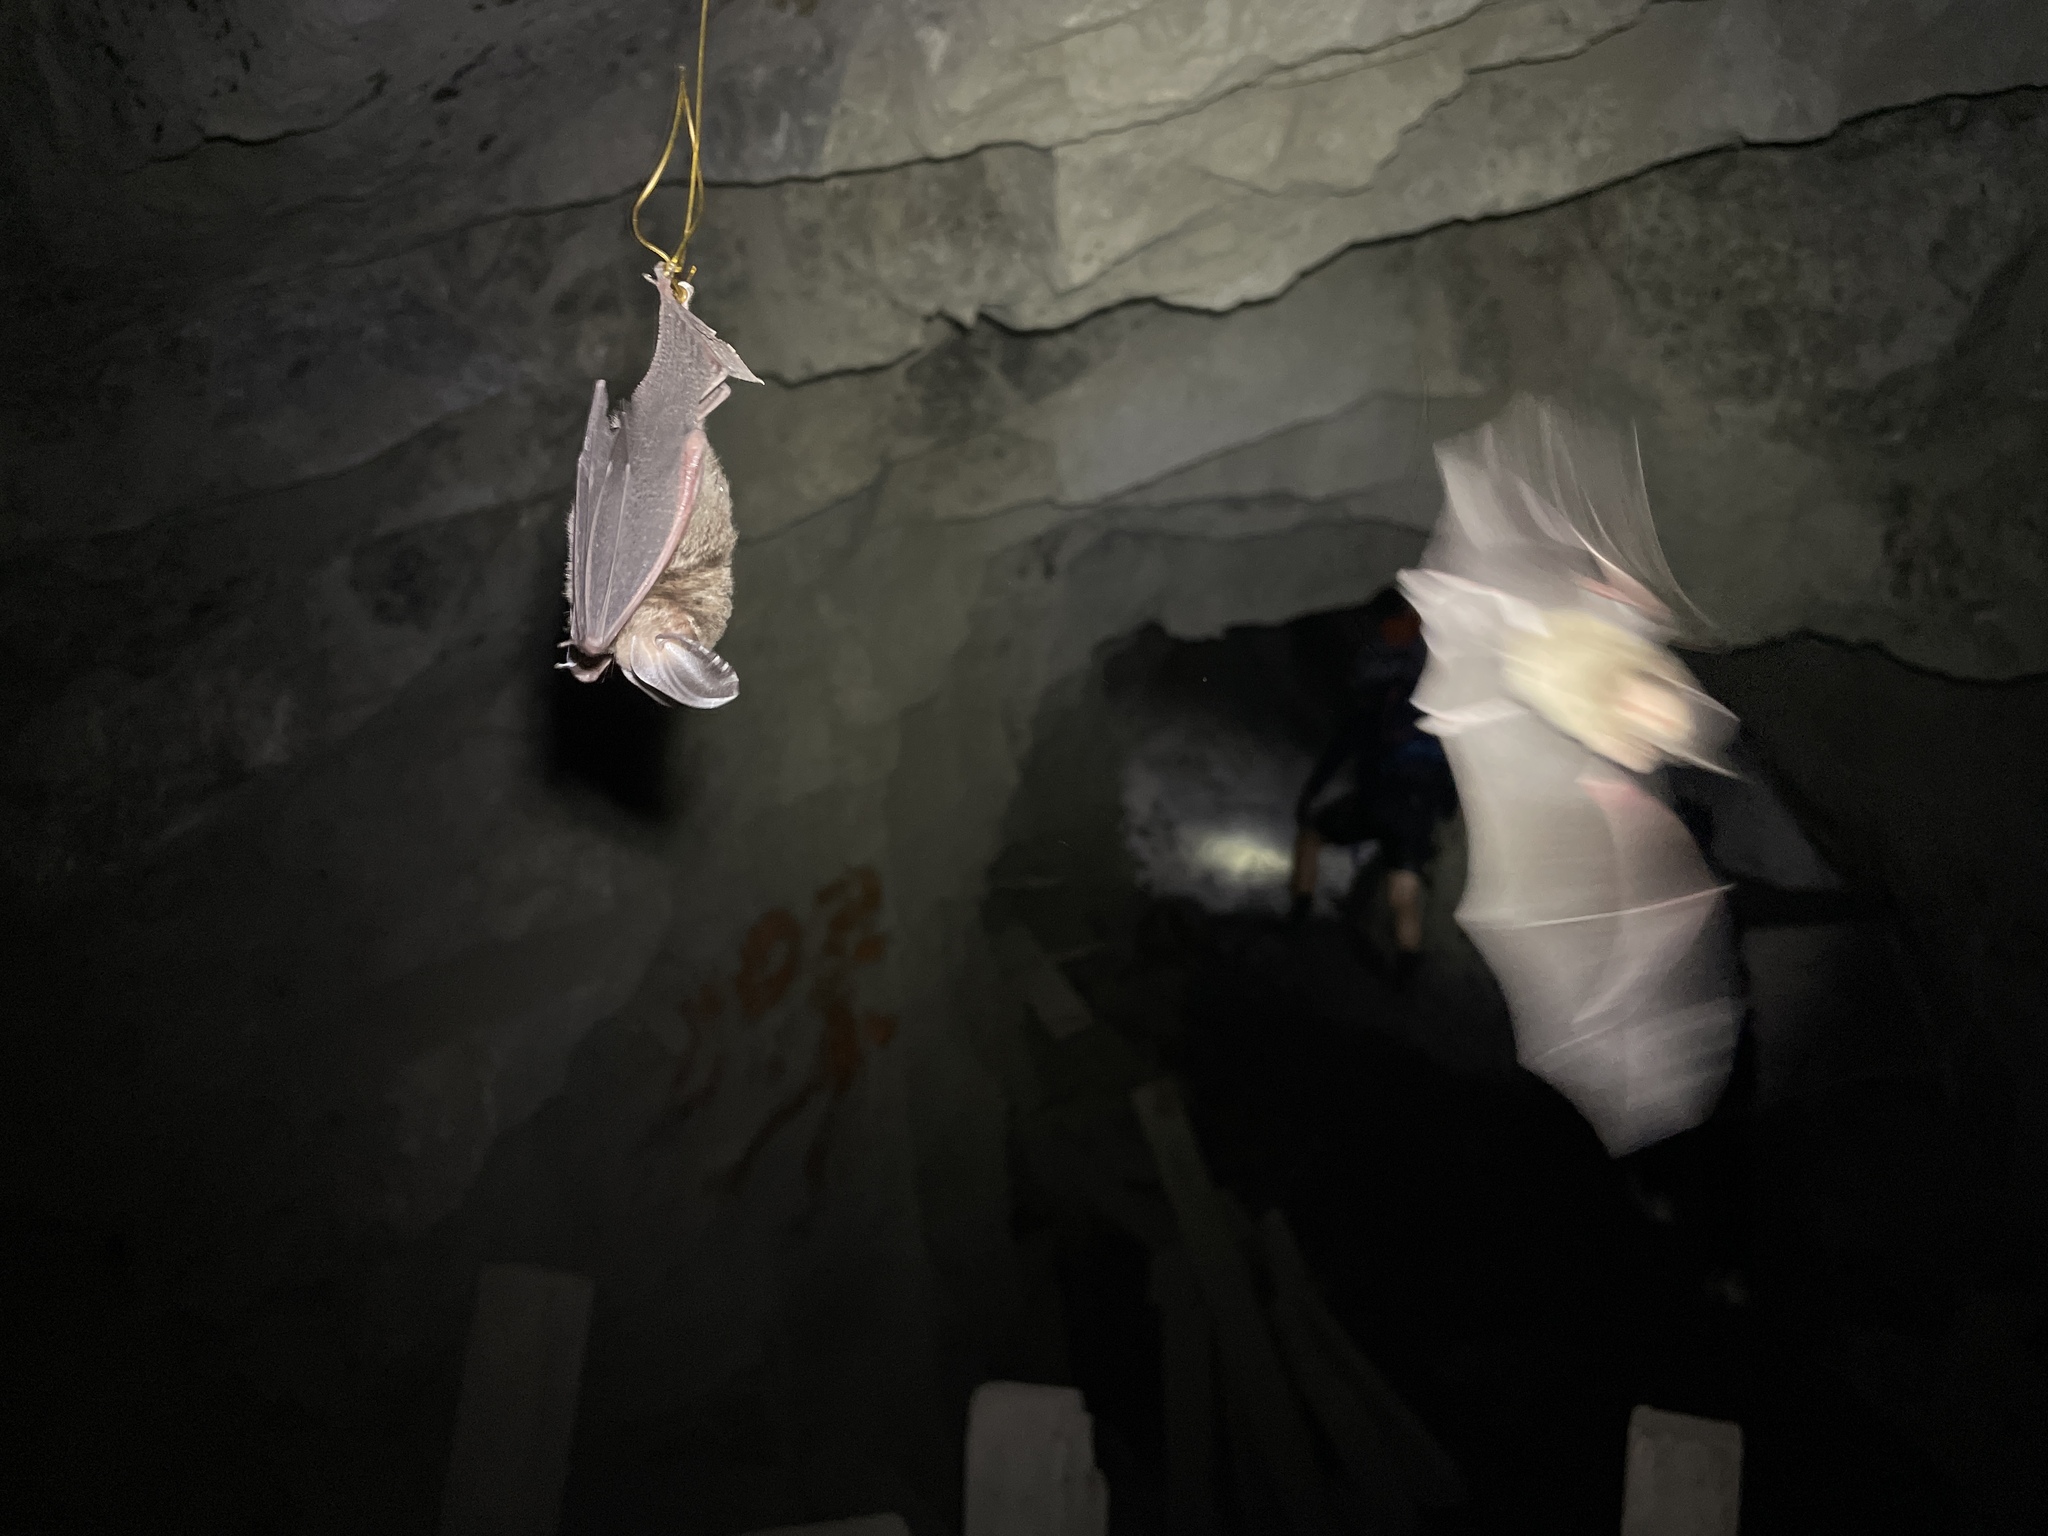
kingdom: Animalia
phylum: Chordata
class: Mammalia
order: Chiroptera
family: Hipposideridae
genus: Hipposideros
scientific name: Hipposideros gentilis
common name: Andersen's leaf-nosed bat
